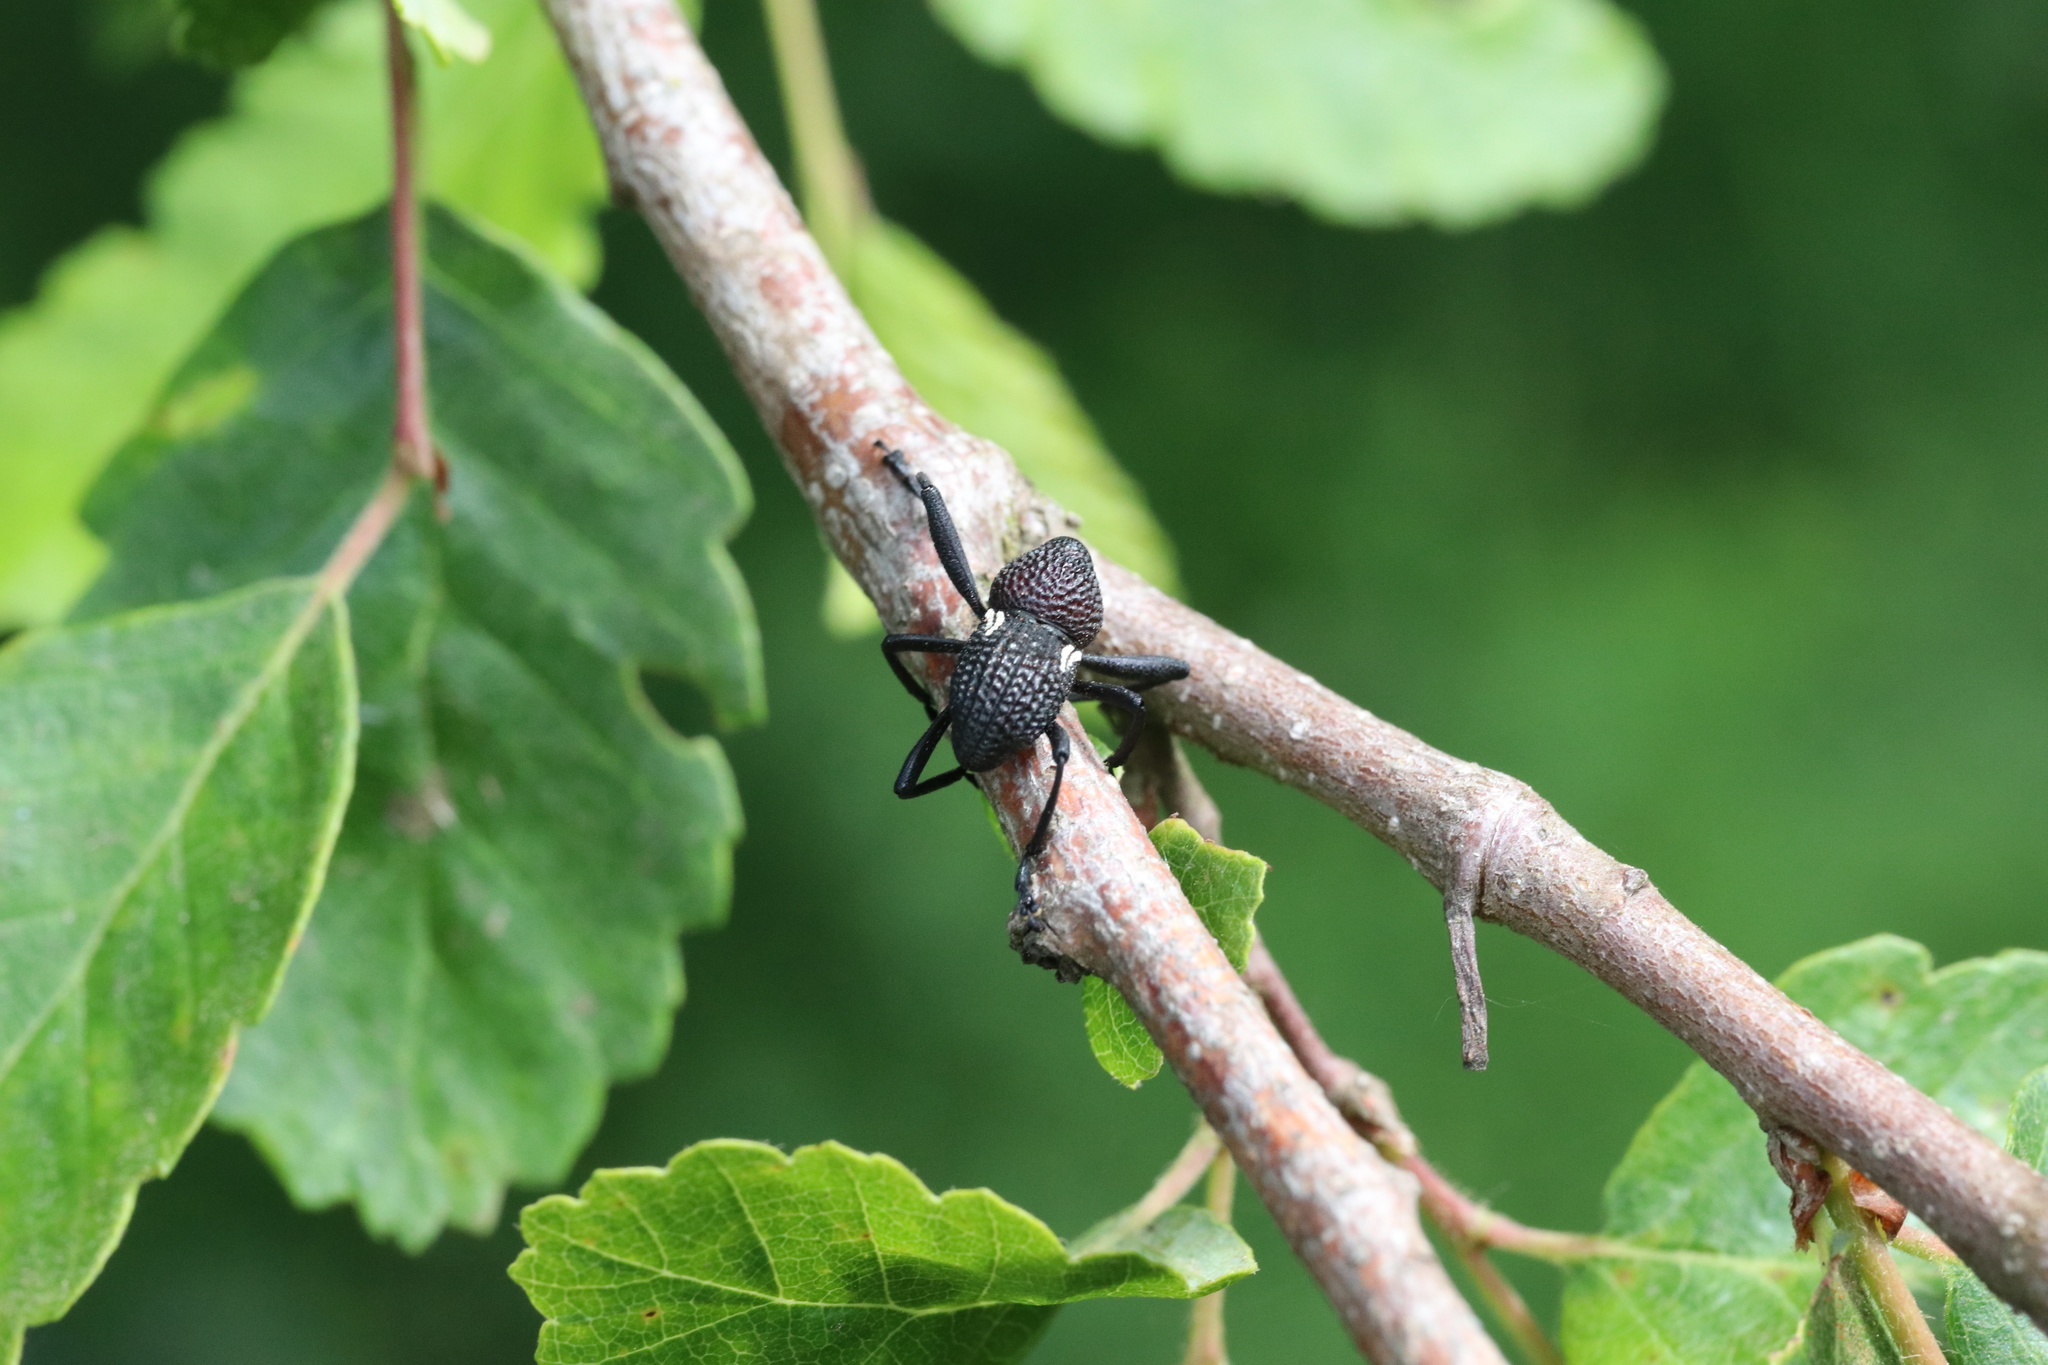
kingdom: Animalia
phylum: Arthropoda
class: Insecta
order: Coleoptera
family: Curculionidae
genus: Rhyephenes
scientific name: Rhyephenes humeralis
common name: Araè±ita chilena del pino
